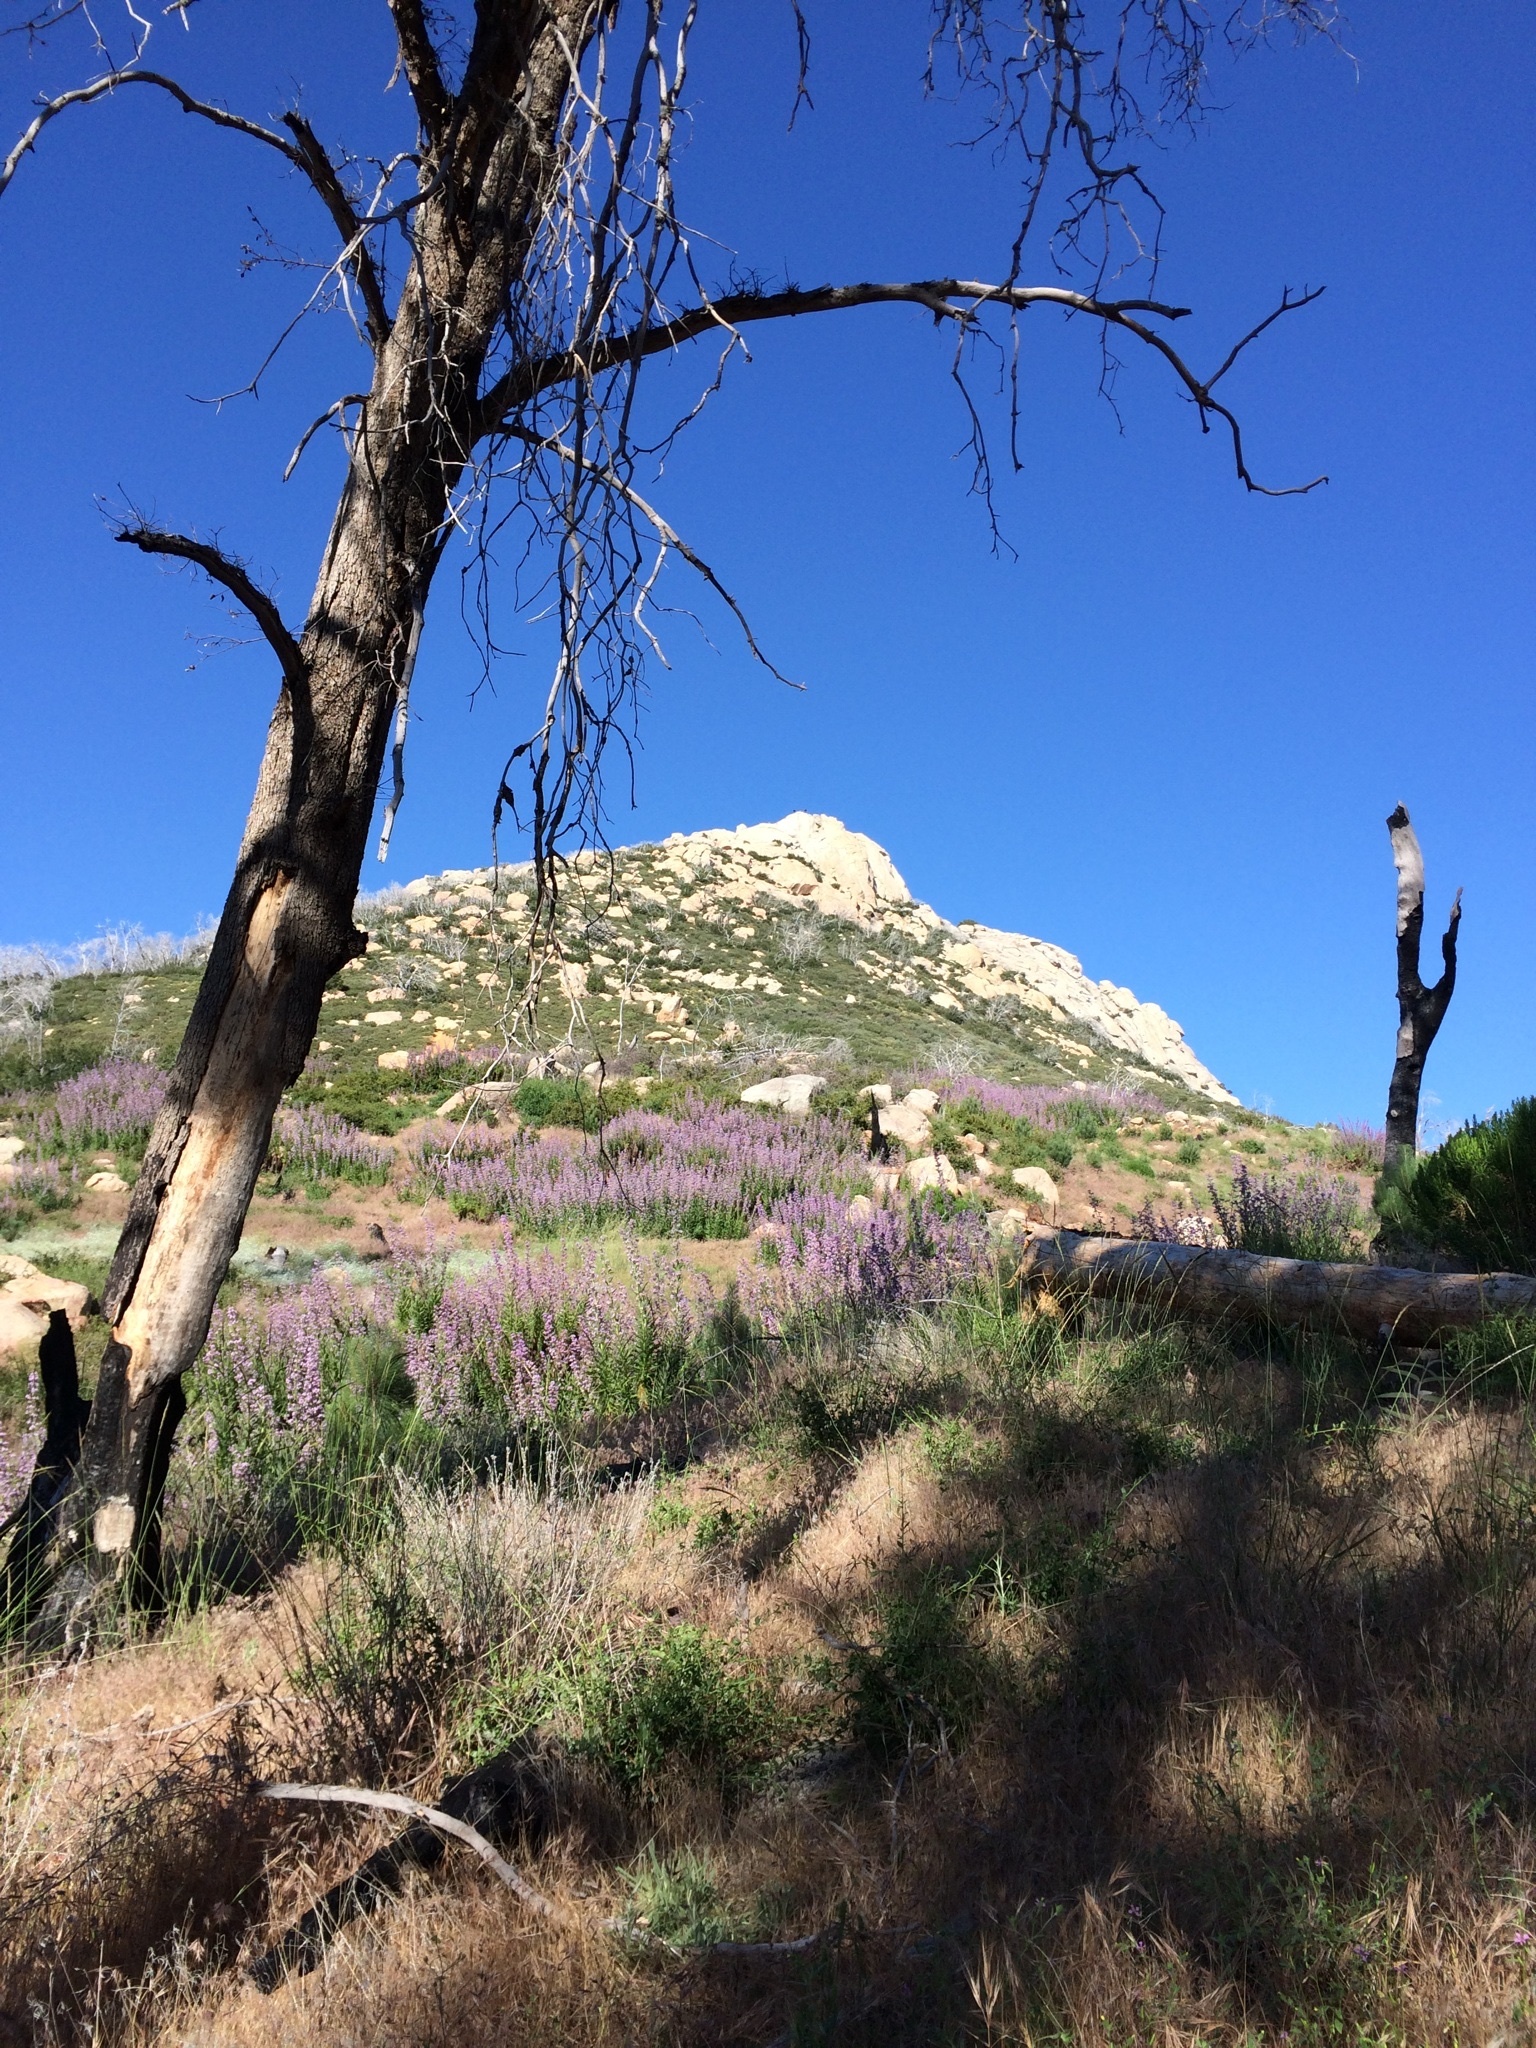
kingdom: Plantae
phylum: Tracheophyta
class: Magnoliopsida
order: Boraginales
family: Namaceae
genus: Turricula
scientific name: Turricula parryi
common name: Poodle-dog-bush
